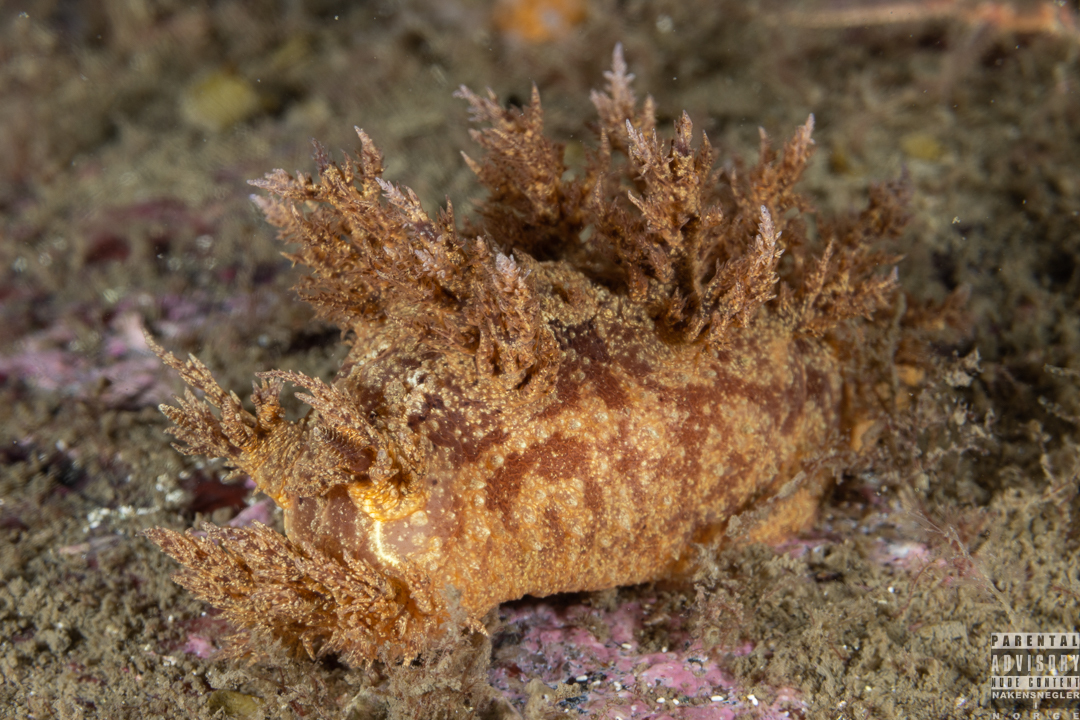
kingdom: Animalia
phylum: Mollusca
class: Gastropoda
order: Nudibranchia
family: Dendronotidae
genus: Dendronotus
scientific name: Dendronotus europaeus
